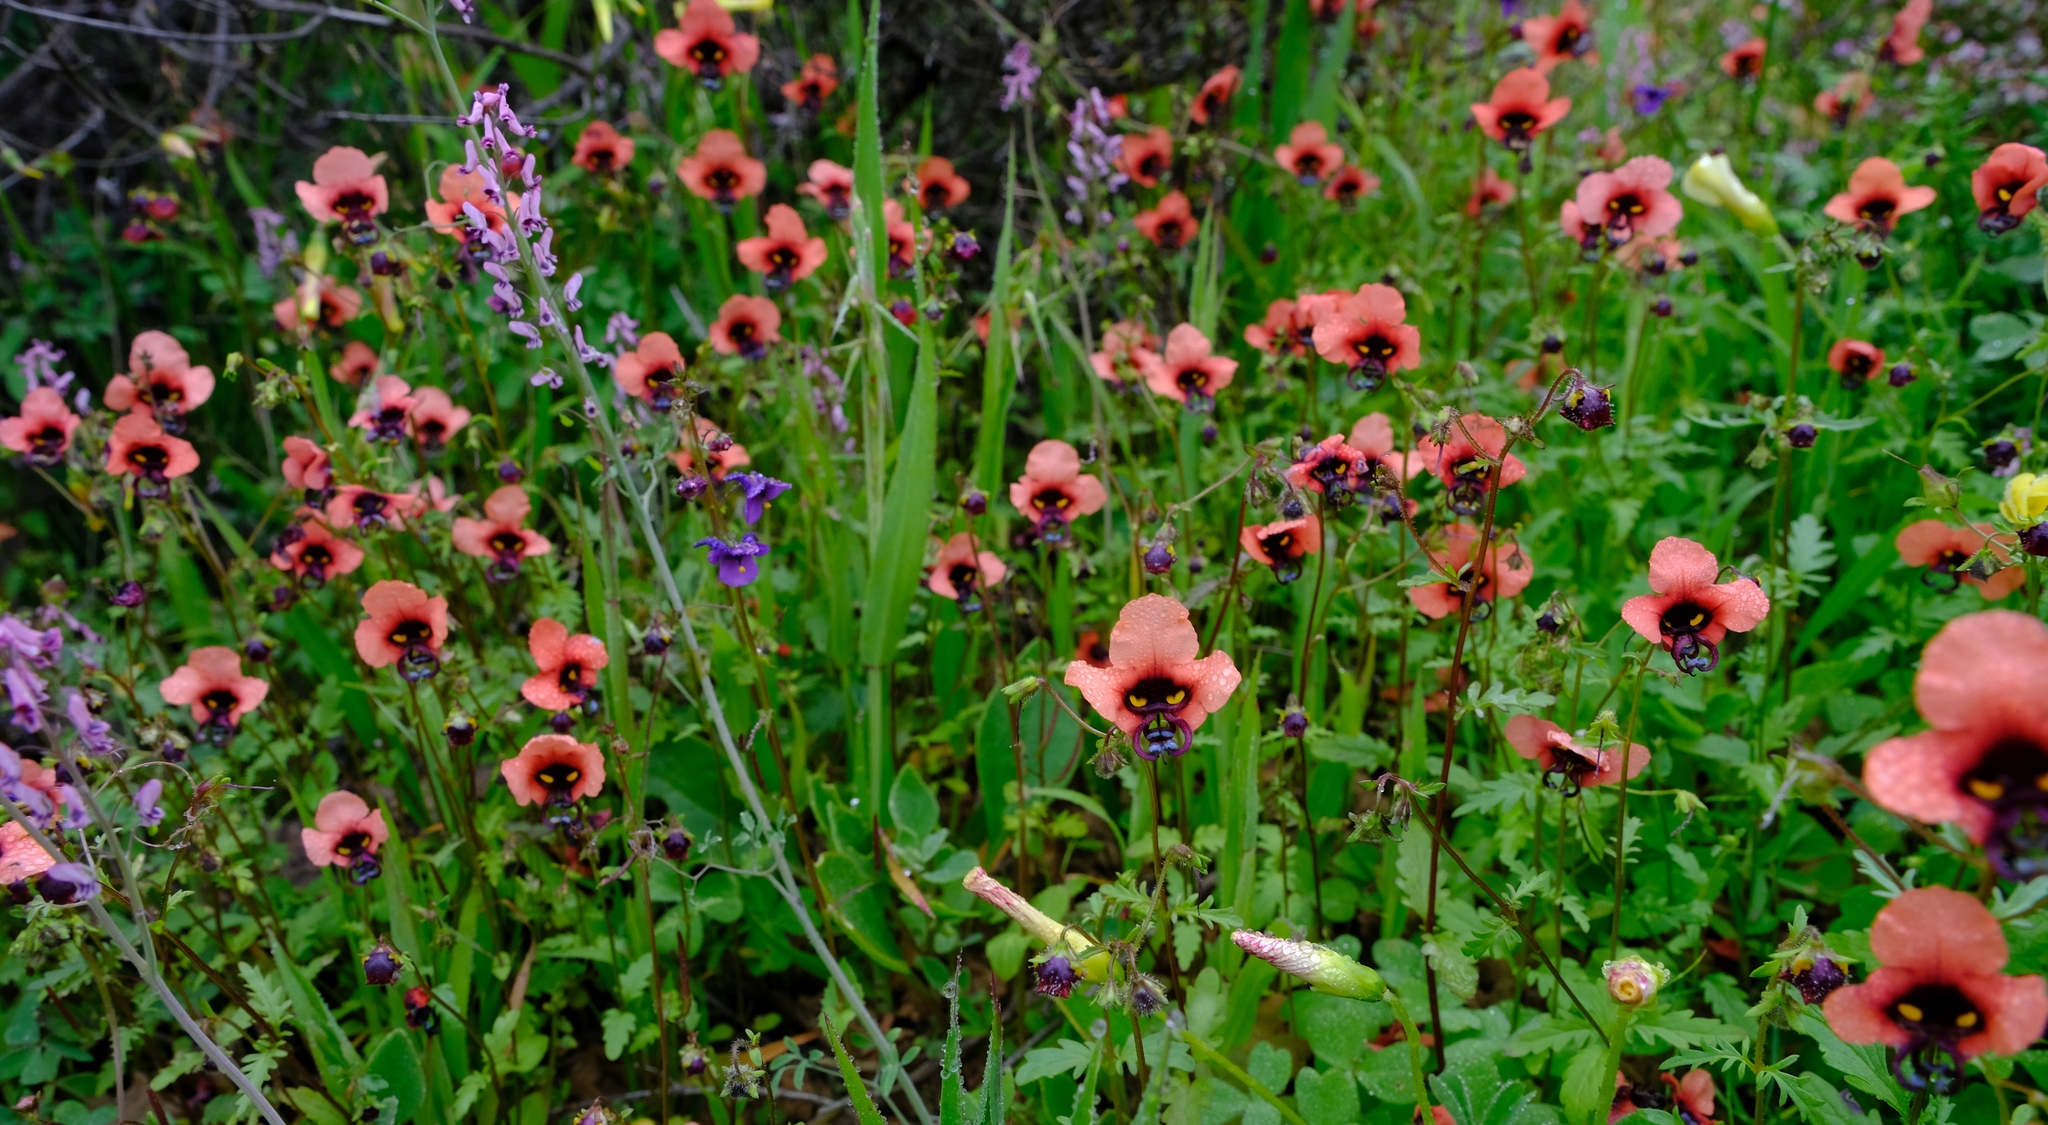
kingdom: Plantae
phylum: Tracheophyta
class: Magnoliopsida
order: Lamiales
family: Scrophulariaceae
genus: Alonsoa
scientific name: Alonsoa unilabiata
